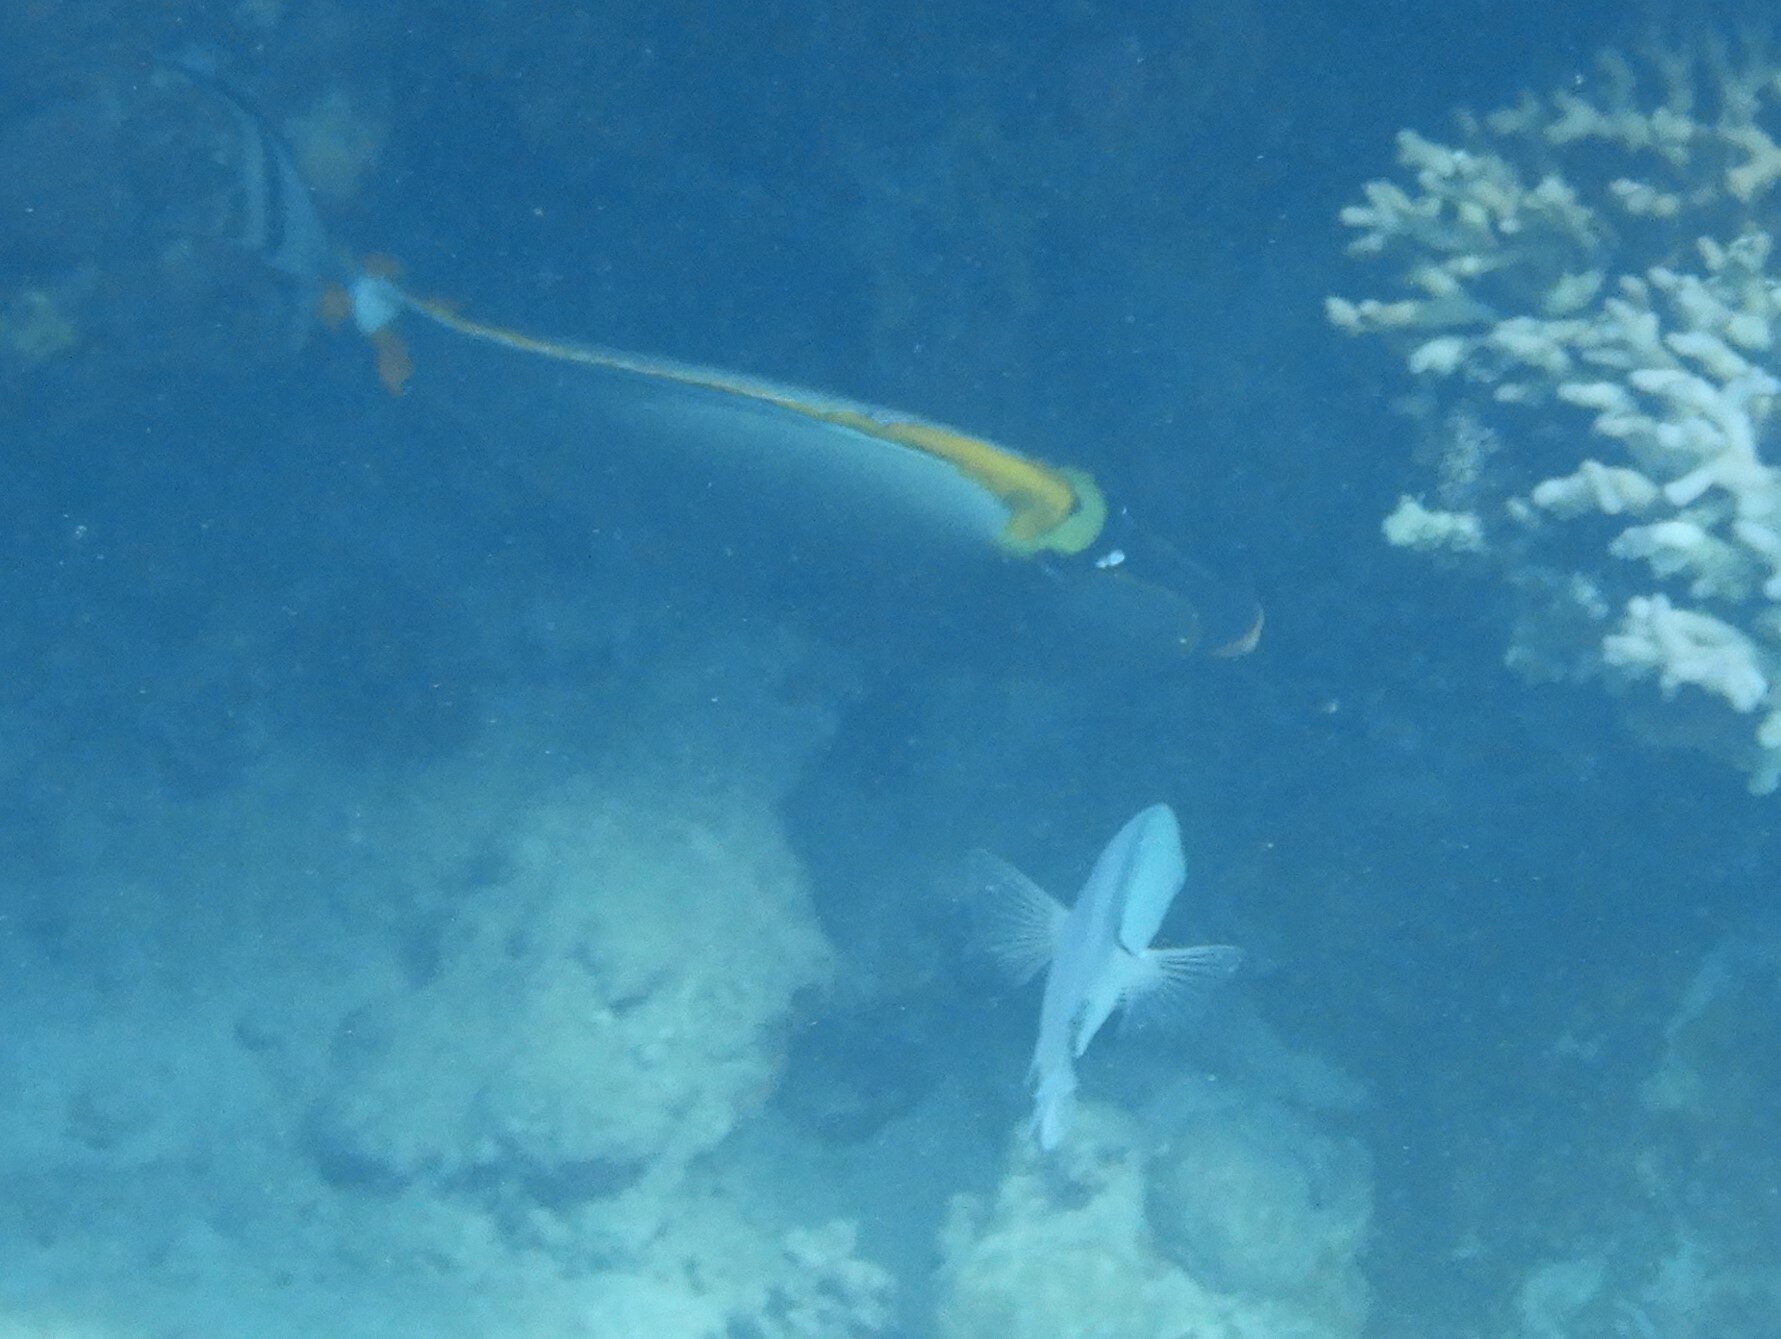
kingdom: Animalia
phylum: Chordata
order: Perciformes
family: Acanthuridae
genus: Naso
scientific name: Naso elegans
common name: Orangespine unicornfish
